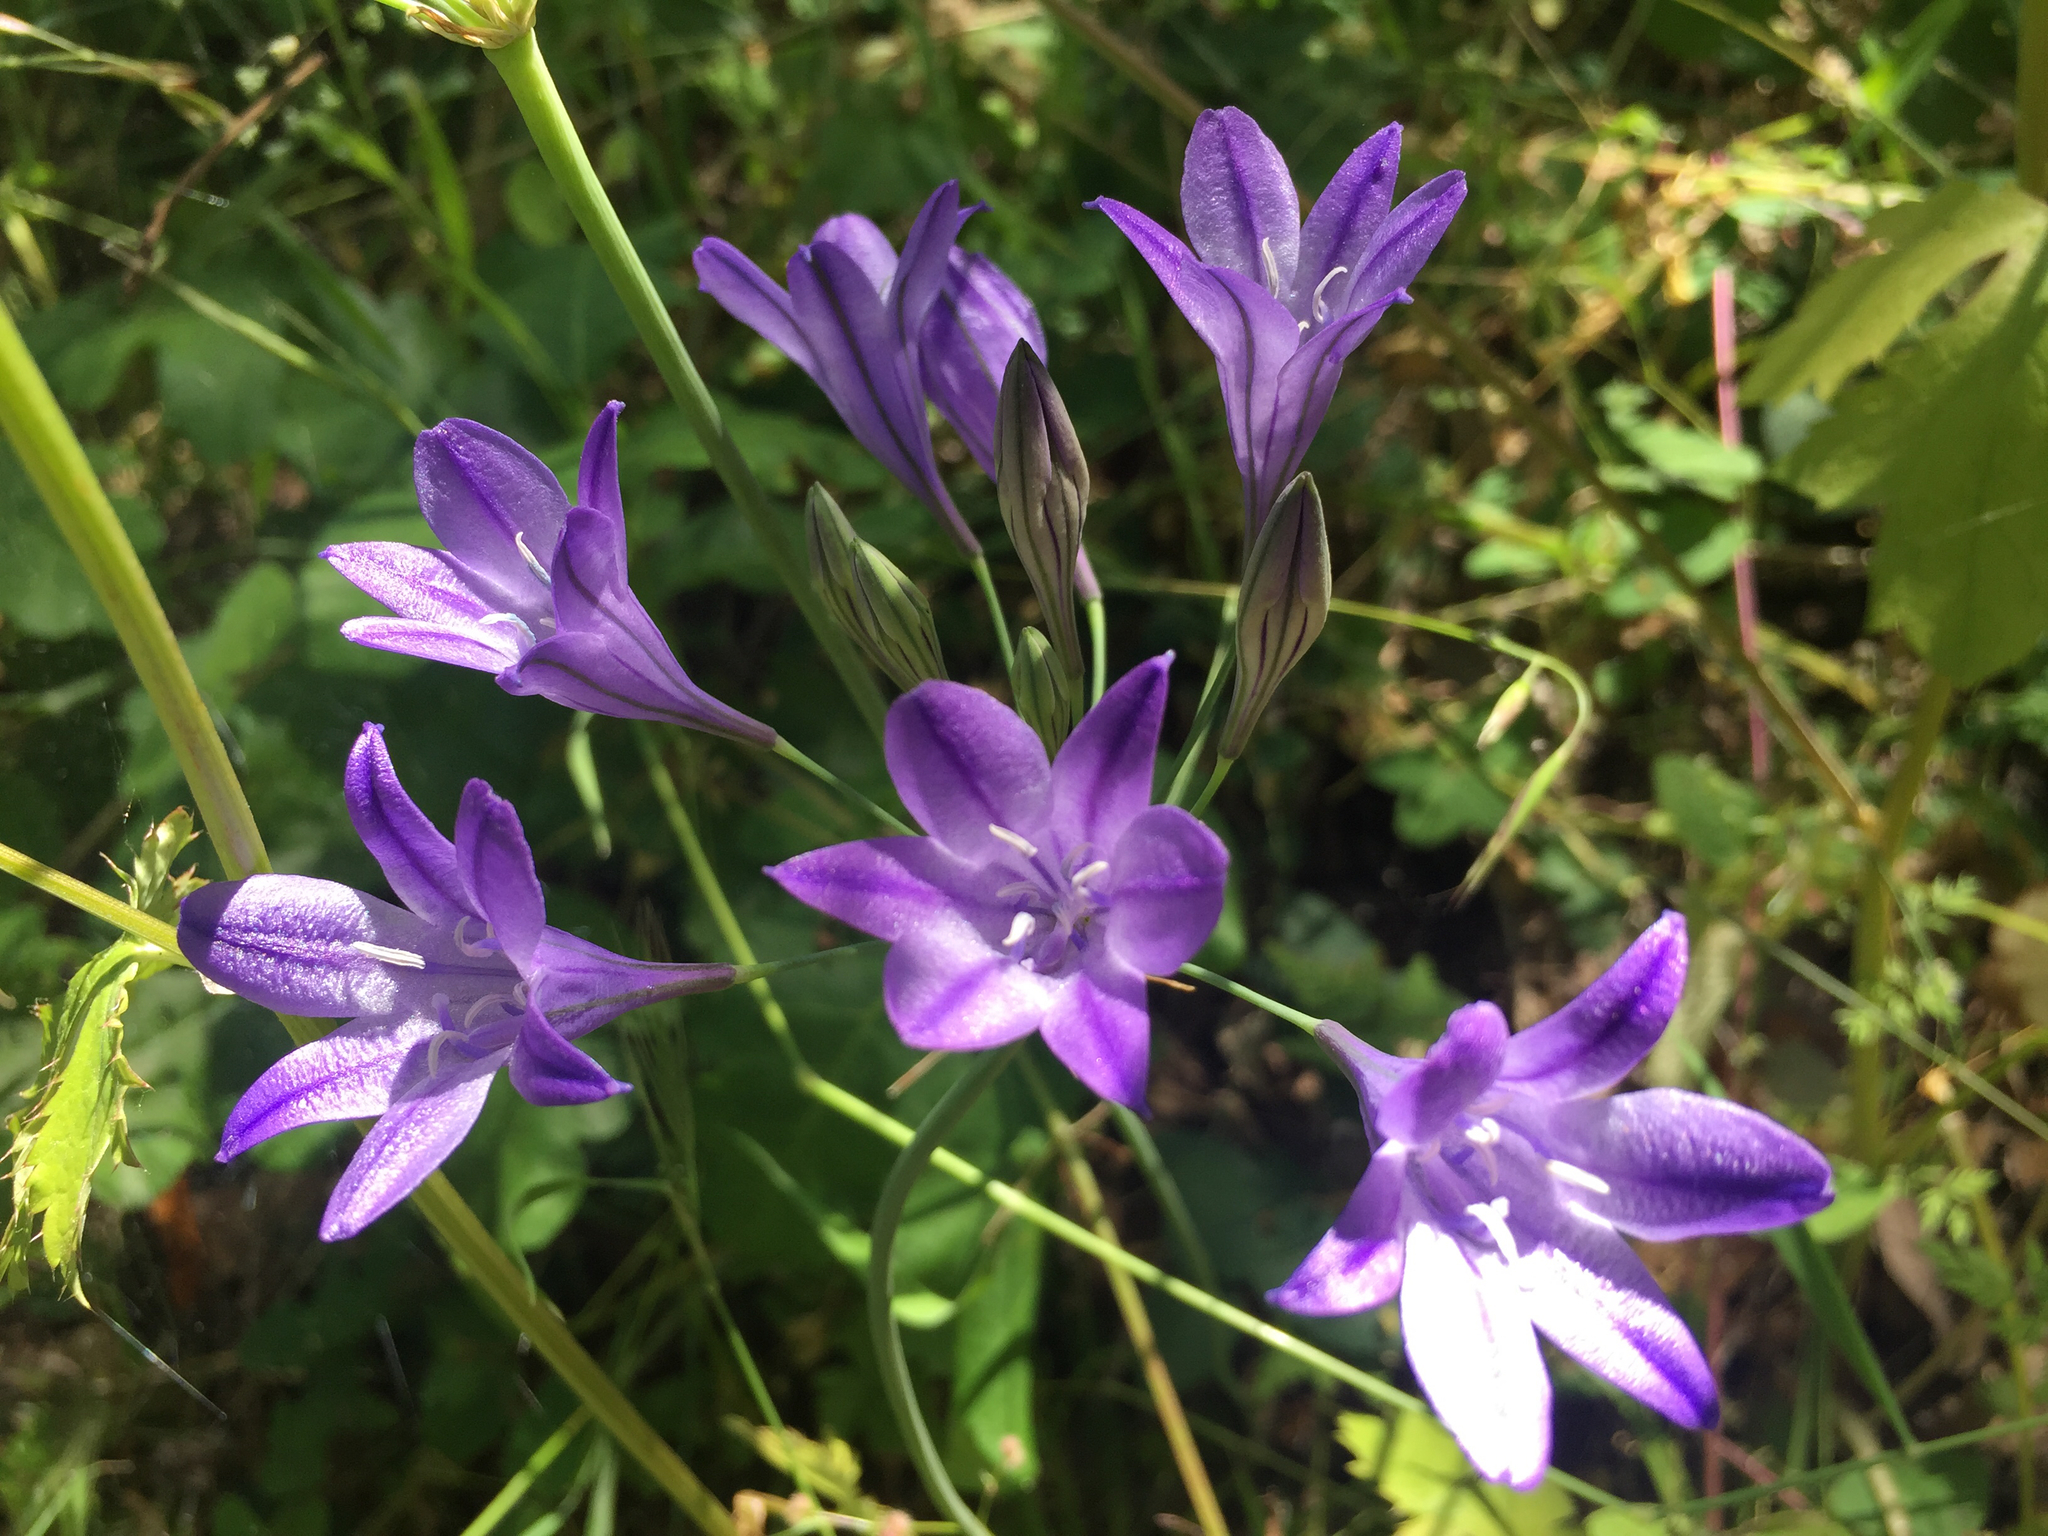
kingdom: Plantae
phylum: Tracheophyta
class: Liliopsida
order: Asparagales
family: Asparagaceae
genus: Triteleia
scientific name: Triteleia laxa
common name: Triplet-lily
